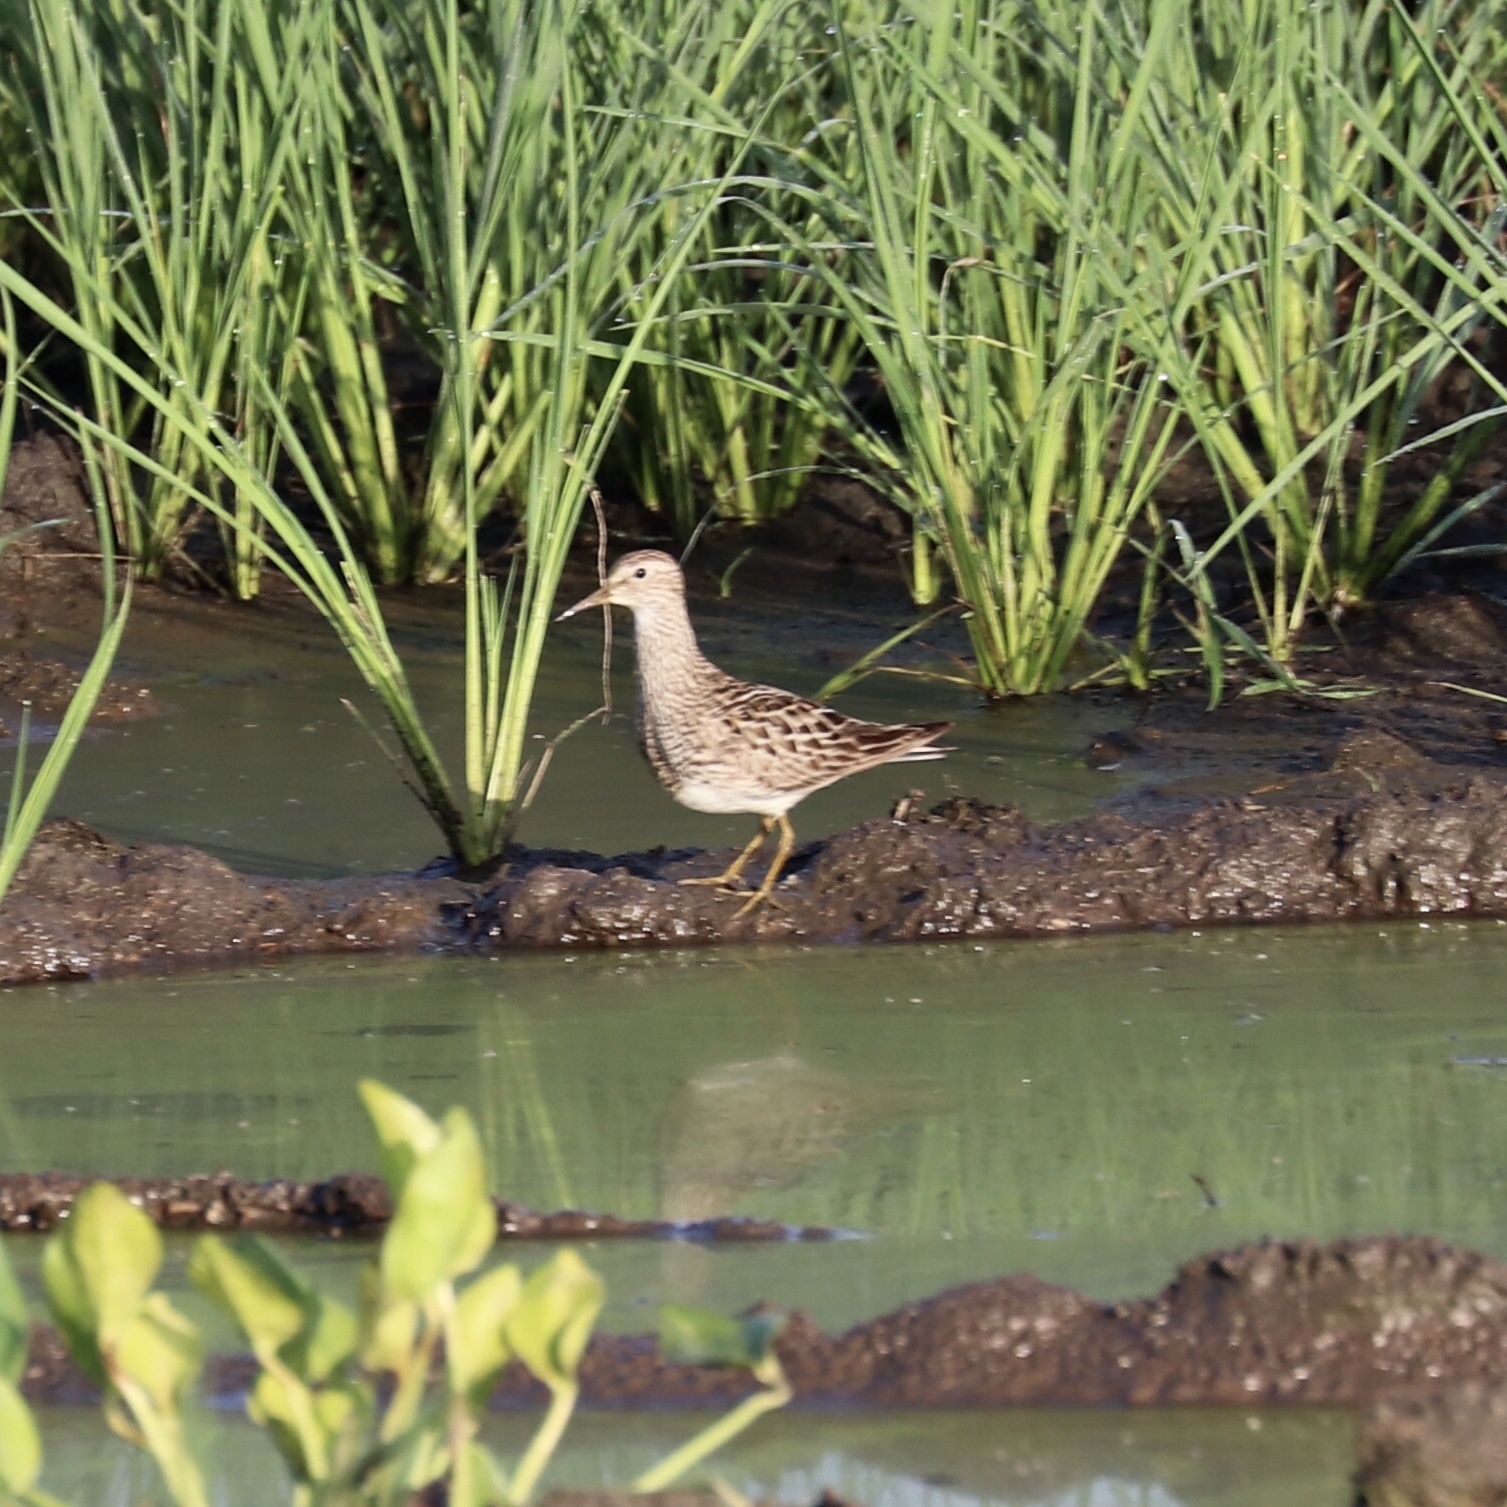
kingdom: Animalia
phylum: Chordata
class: Aves
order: Charadriiformes
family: Scolopacidae
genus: Calidris
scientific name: Calidris melanotos
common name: Pectoral sandpiper
